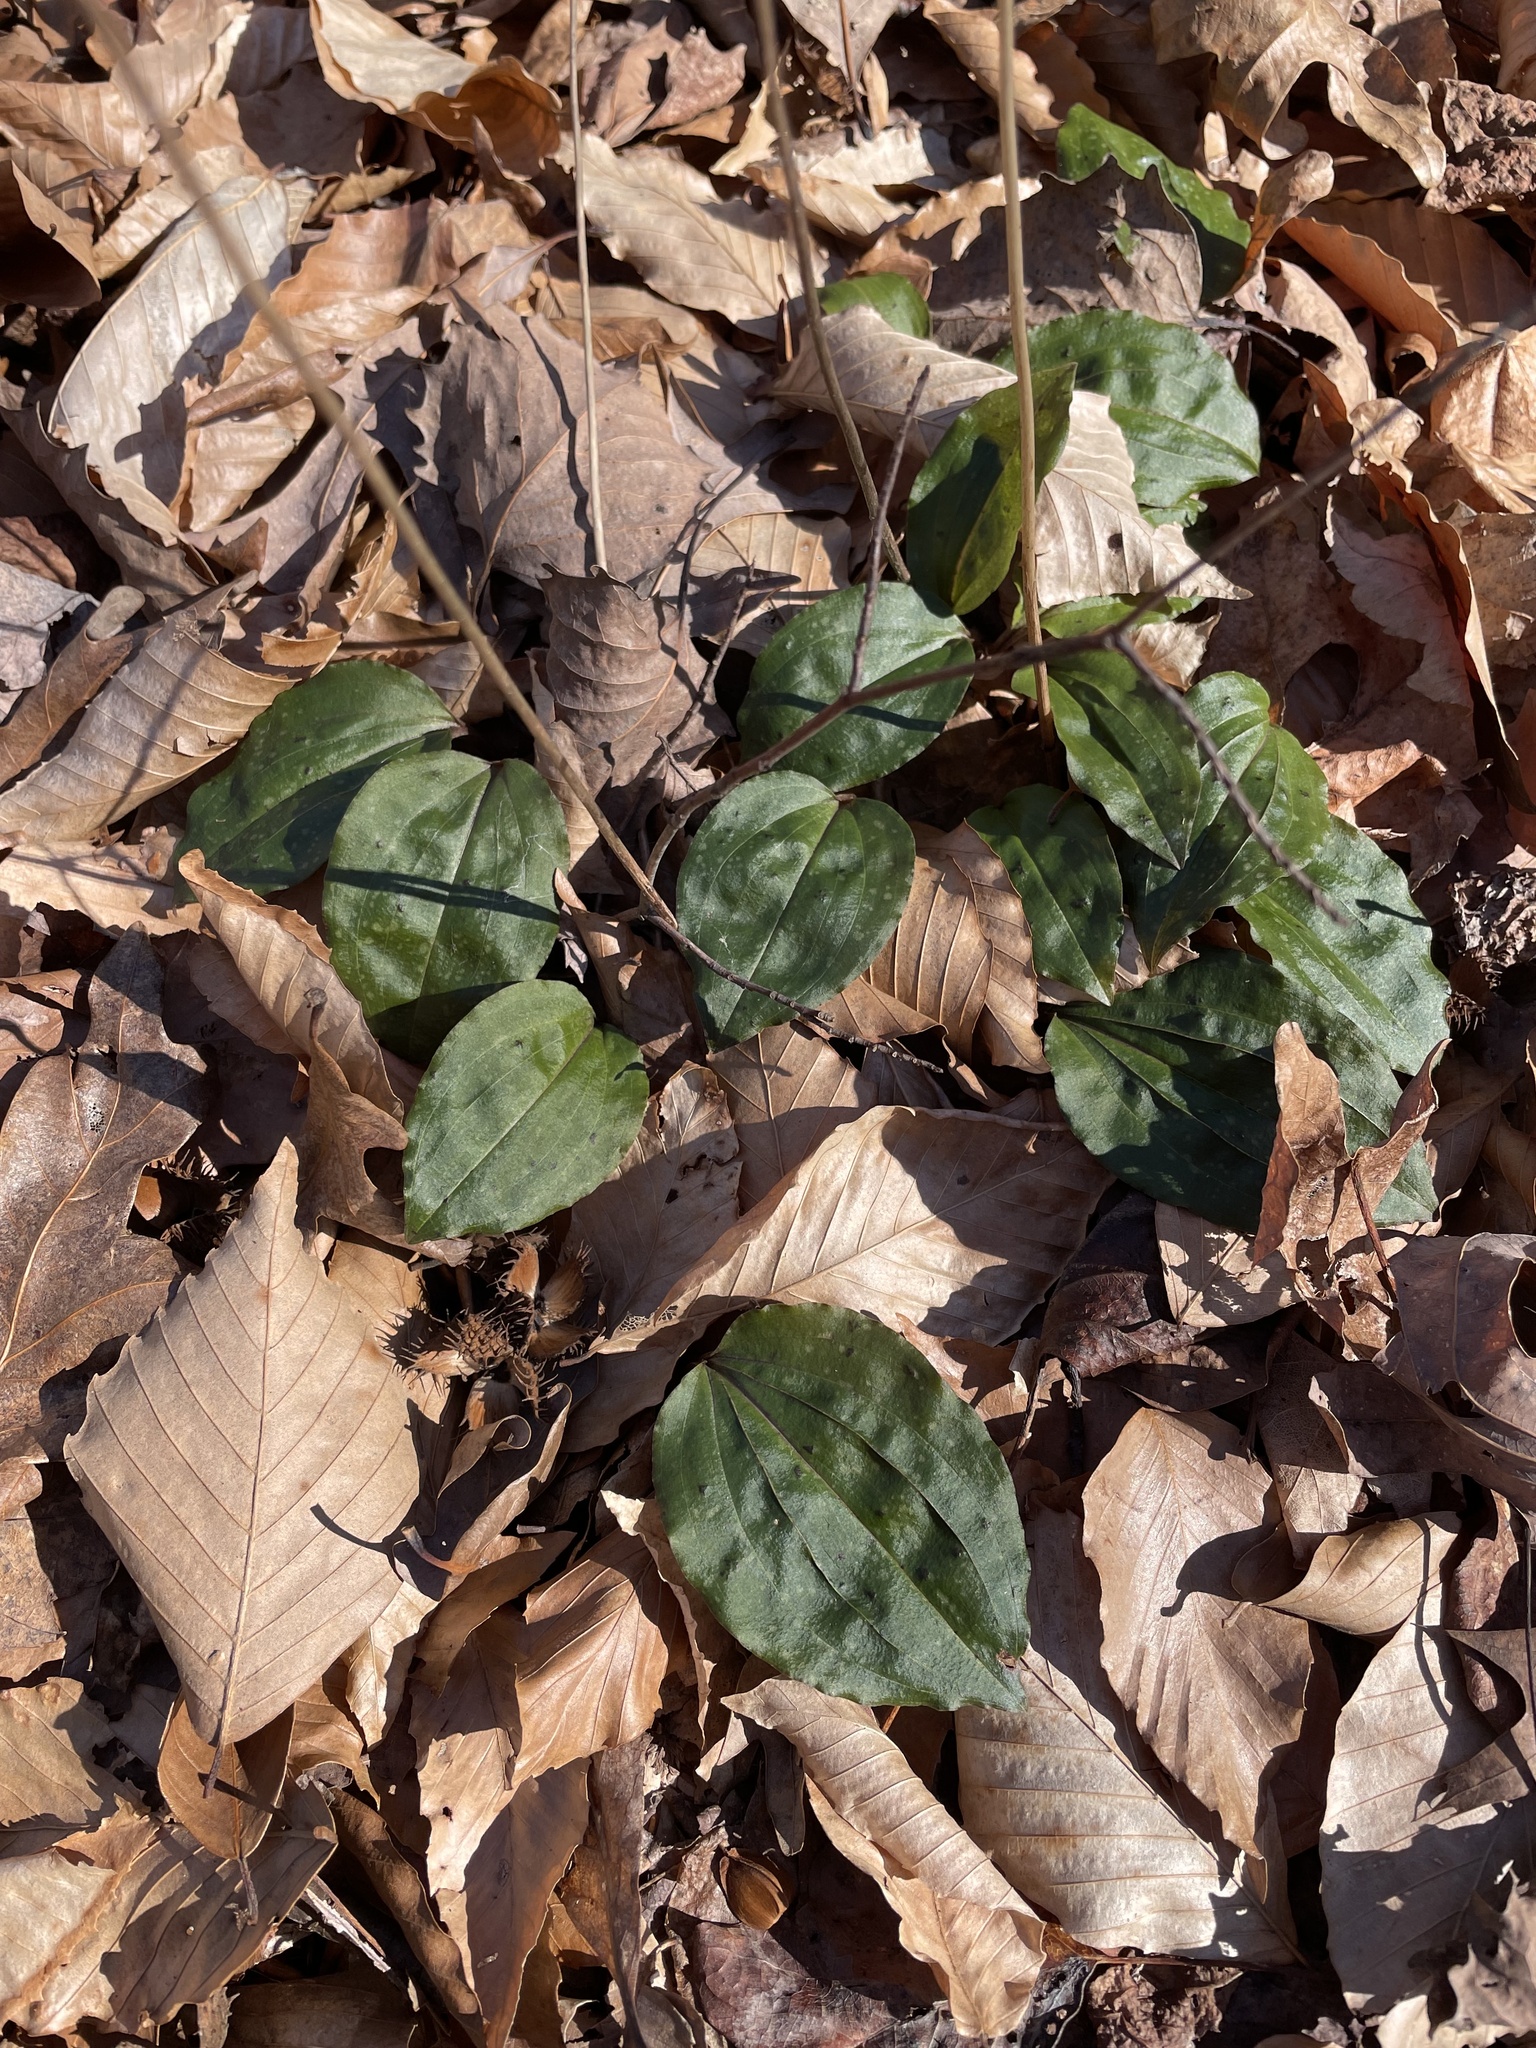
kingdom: Plantae
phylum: Tracheophyta
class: Liliopsida
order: Asparagales
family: Orchidaceae
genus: Tipularia
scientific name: Tipularia discolor
